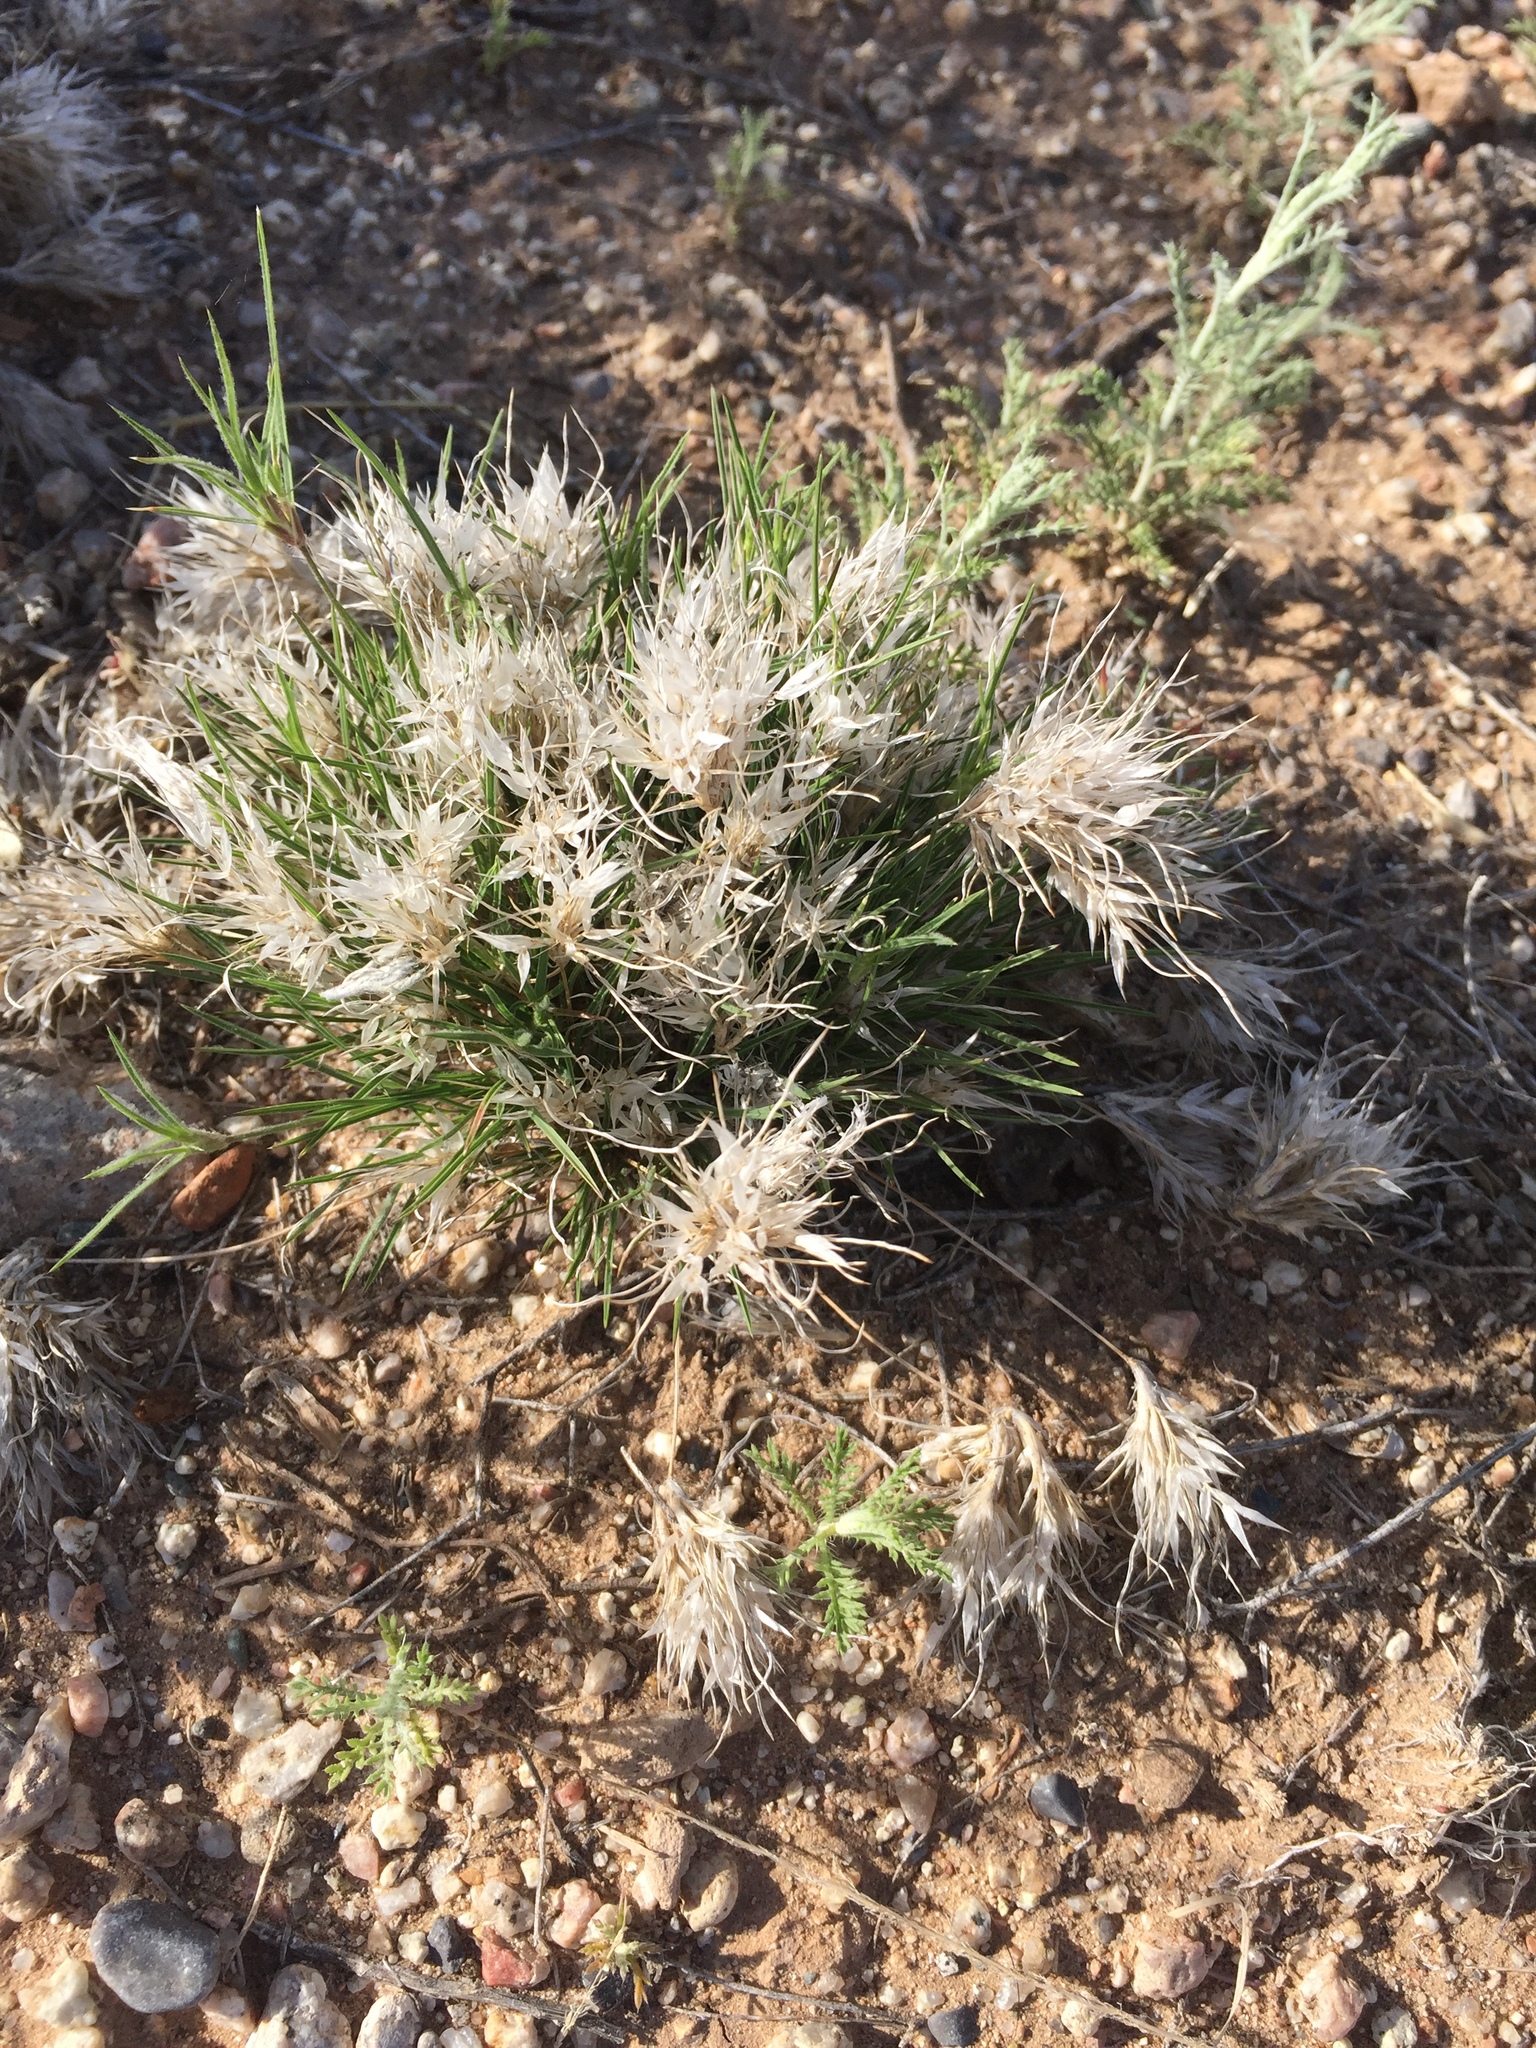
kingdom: Plantae
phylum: Tracheophyta
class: Liliopsida
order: Poales
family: Poaceae
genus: Dasyochloa
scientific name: Dasyochloa pulchella
